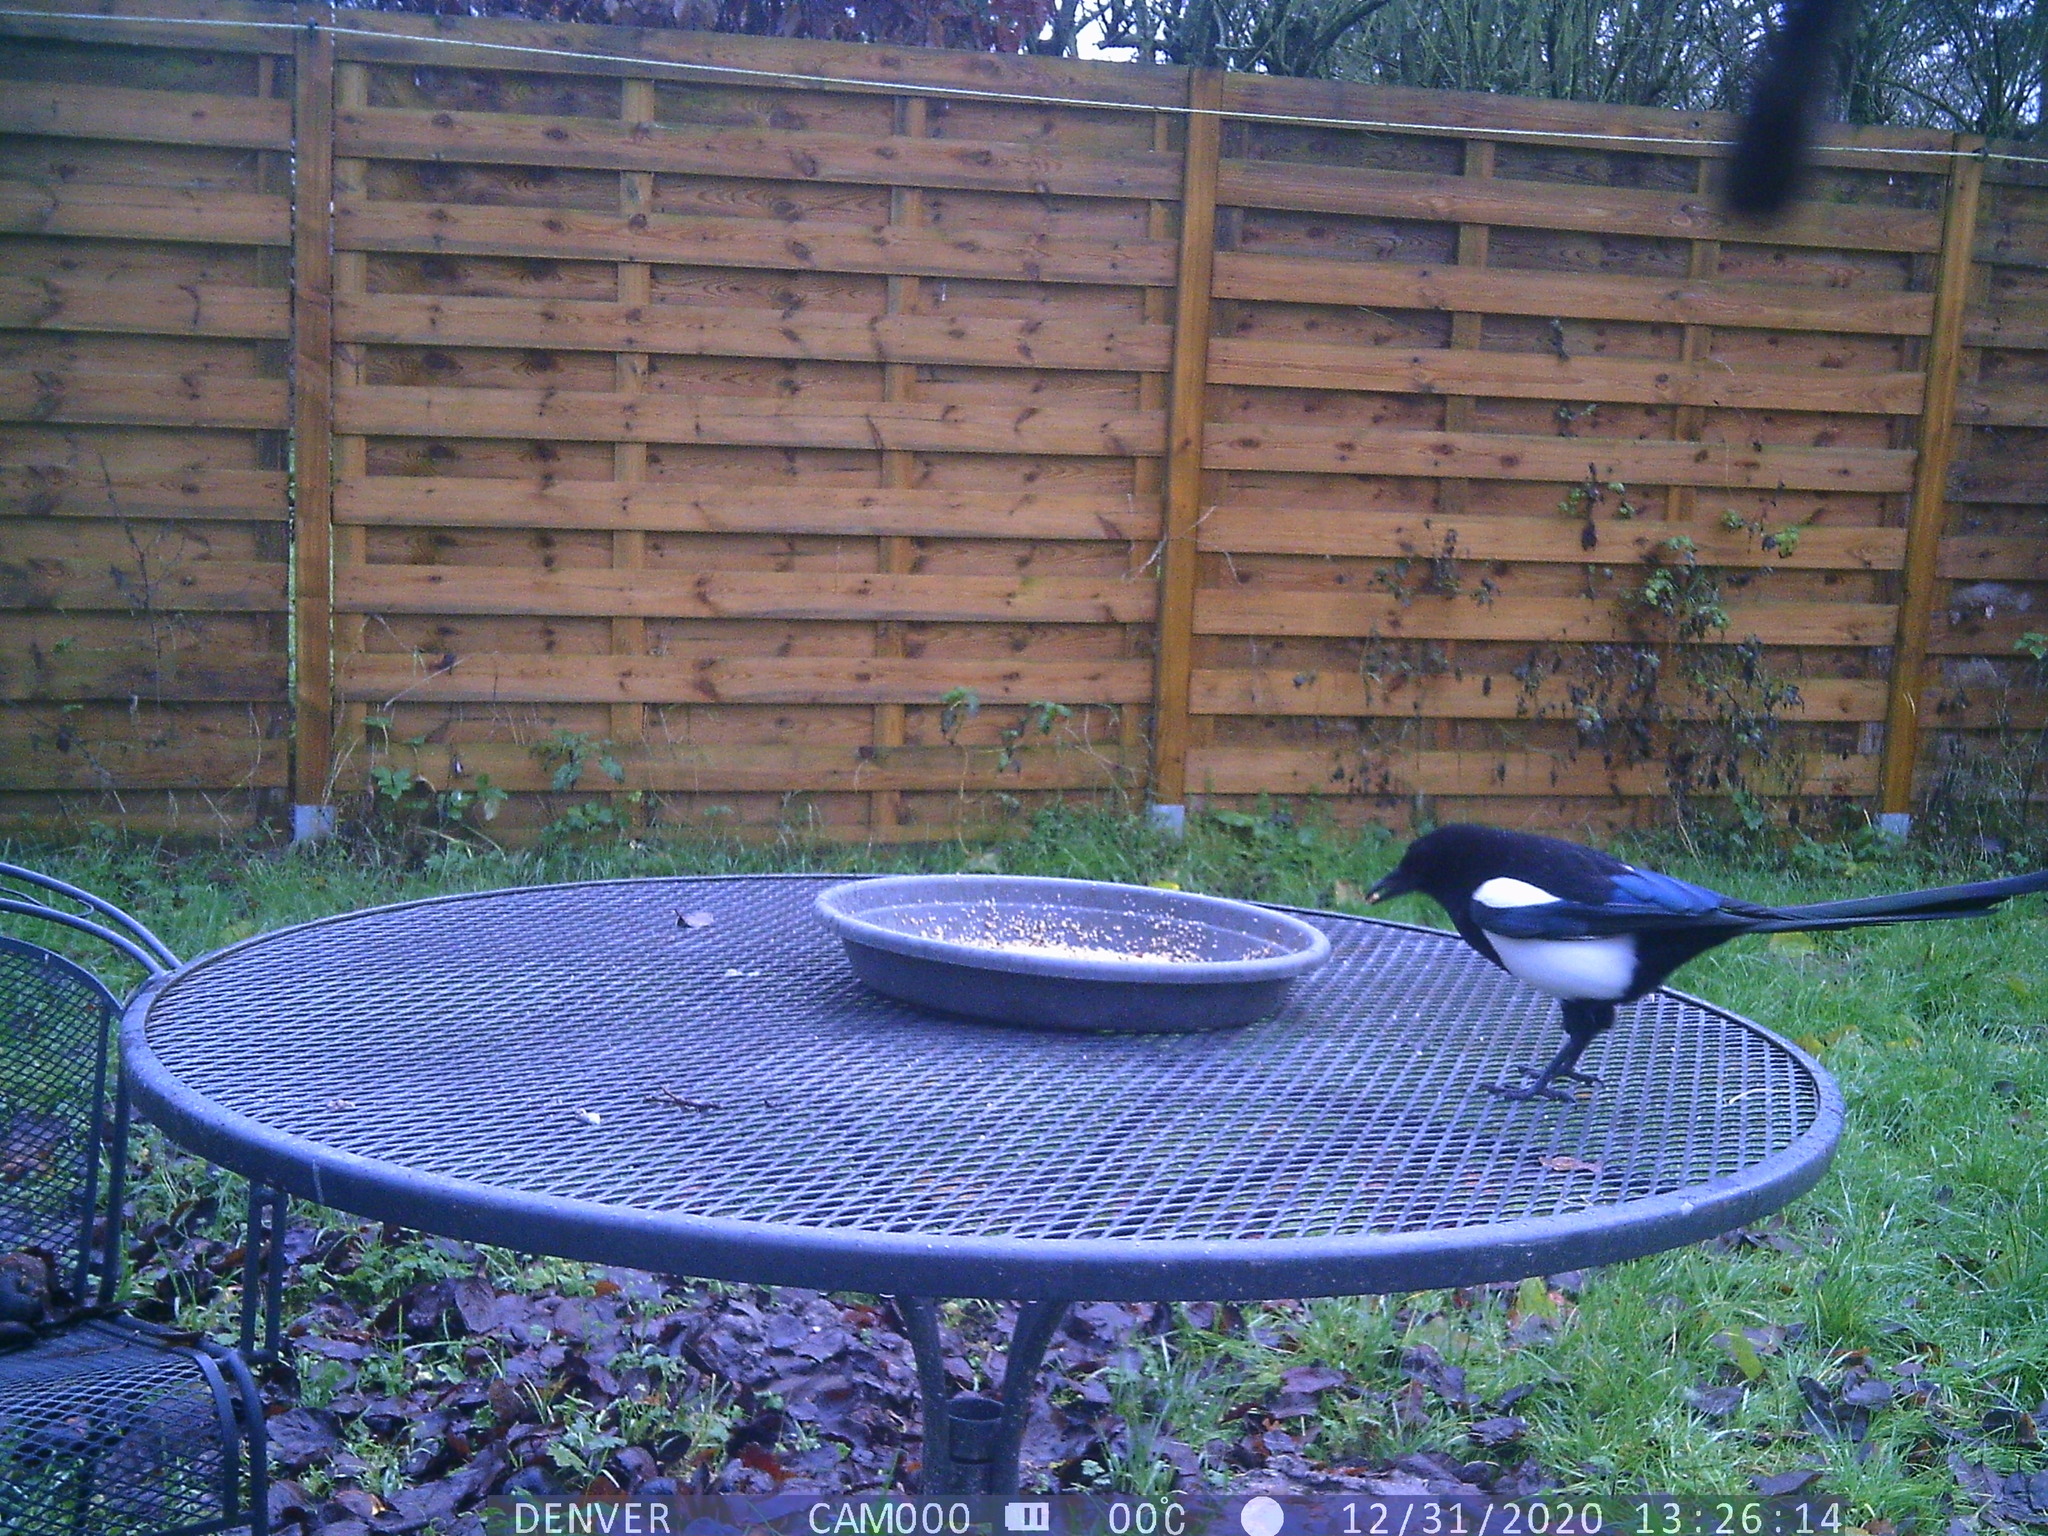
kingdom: Animalia
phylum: Chordata
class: Aves
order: Passeriformes
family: Corvidae
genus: Pica
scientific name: Pica pica
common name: Eurasian magpie
